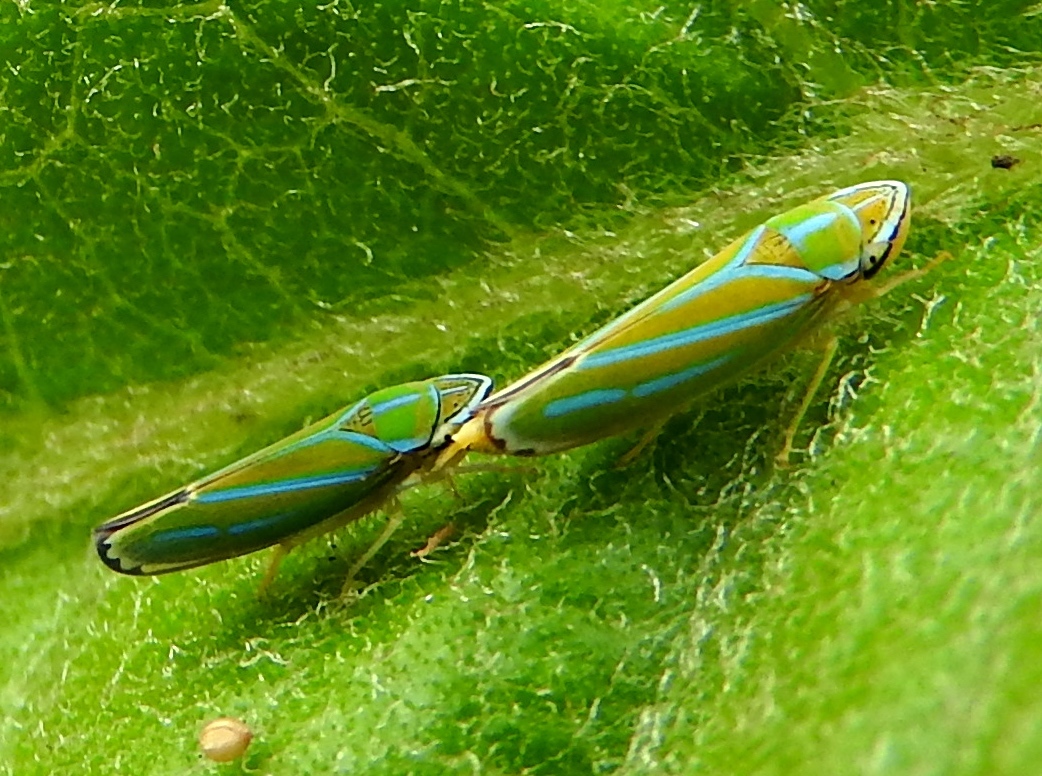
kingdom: Animalia
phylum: Arthropoda
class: Insecta
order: Hemiptera
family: Cicadellidae
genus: Graphocephala
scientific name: Graphocephala apicata
